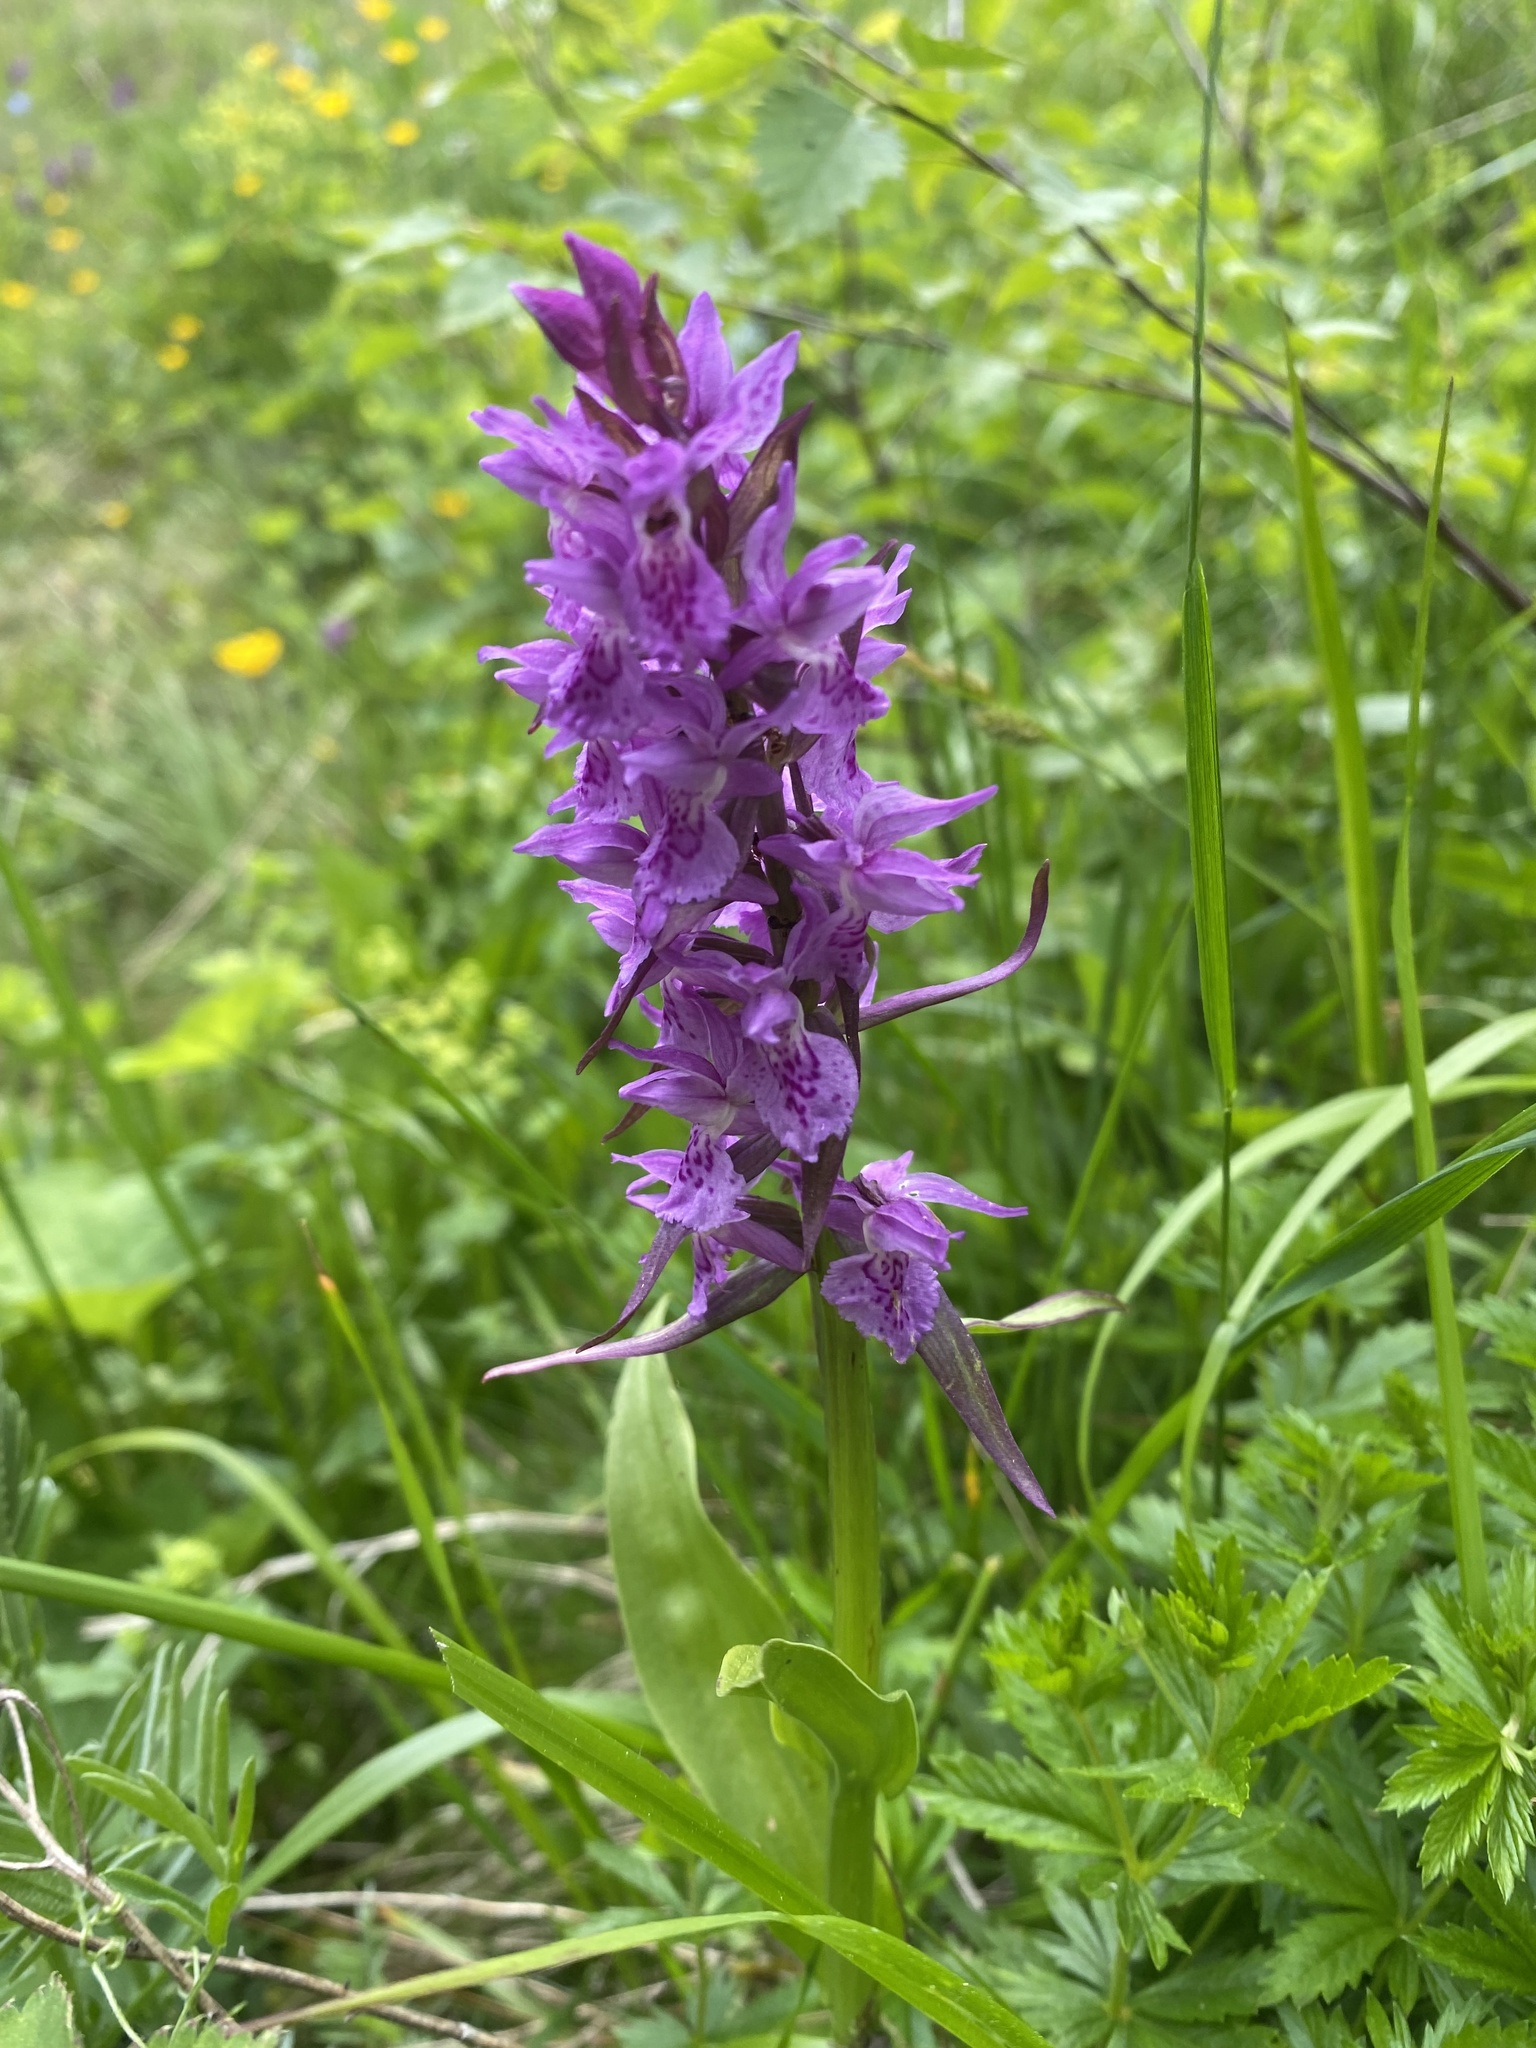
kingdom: Plantae
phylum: Tracheophyta
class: Liliopsida
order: Asparagales
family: Orchidaceae
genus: Dactylorhiza
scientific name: Dactylorhiza euxina
